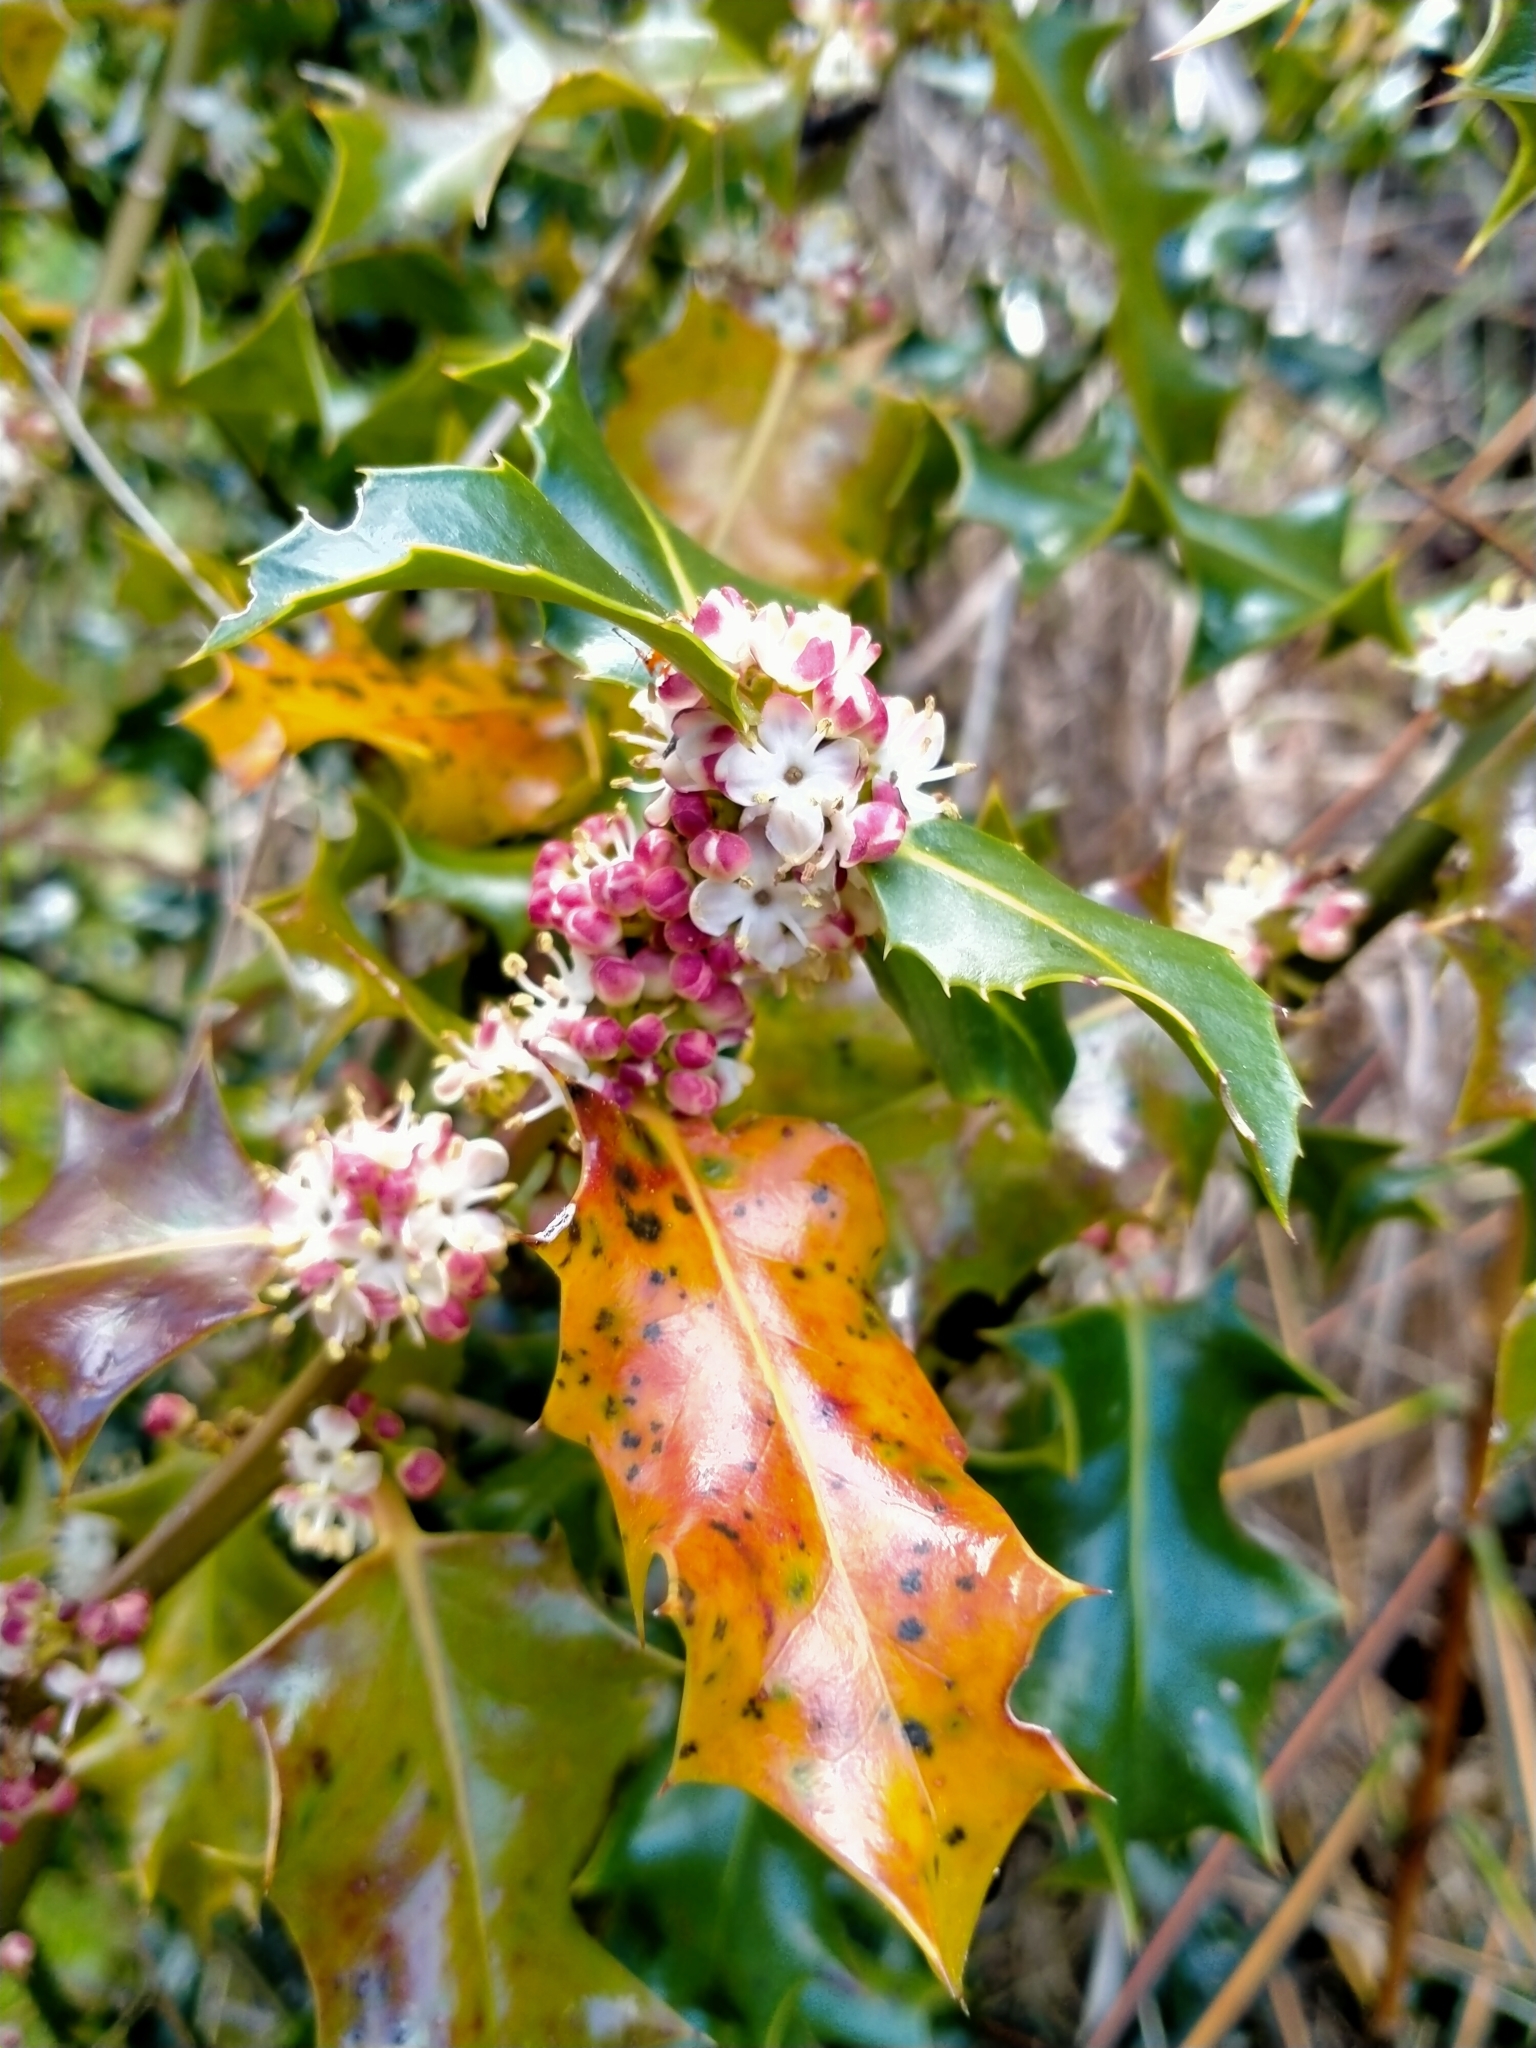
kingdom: Plantae
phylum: Tracheophyta
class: Magnoliopsida
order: Aquifoliales
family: Aquifoliaceae
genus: Ilex
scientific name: Ilex aquifolium
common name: English holly
